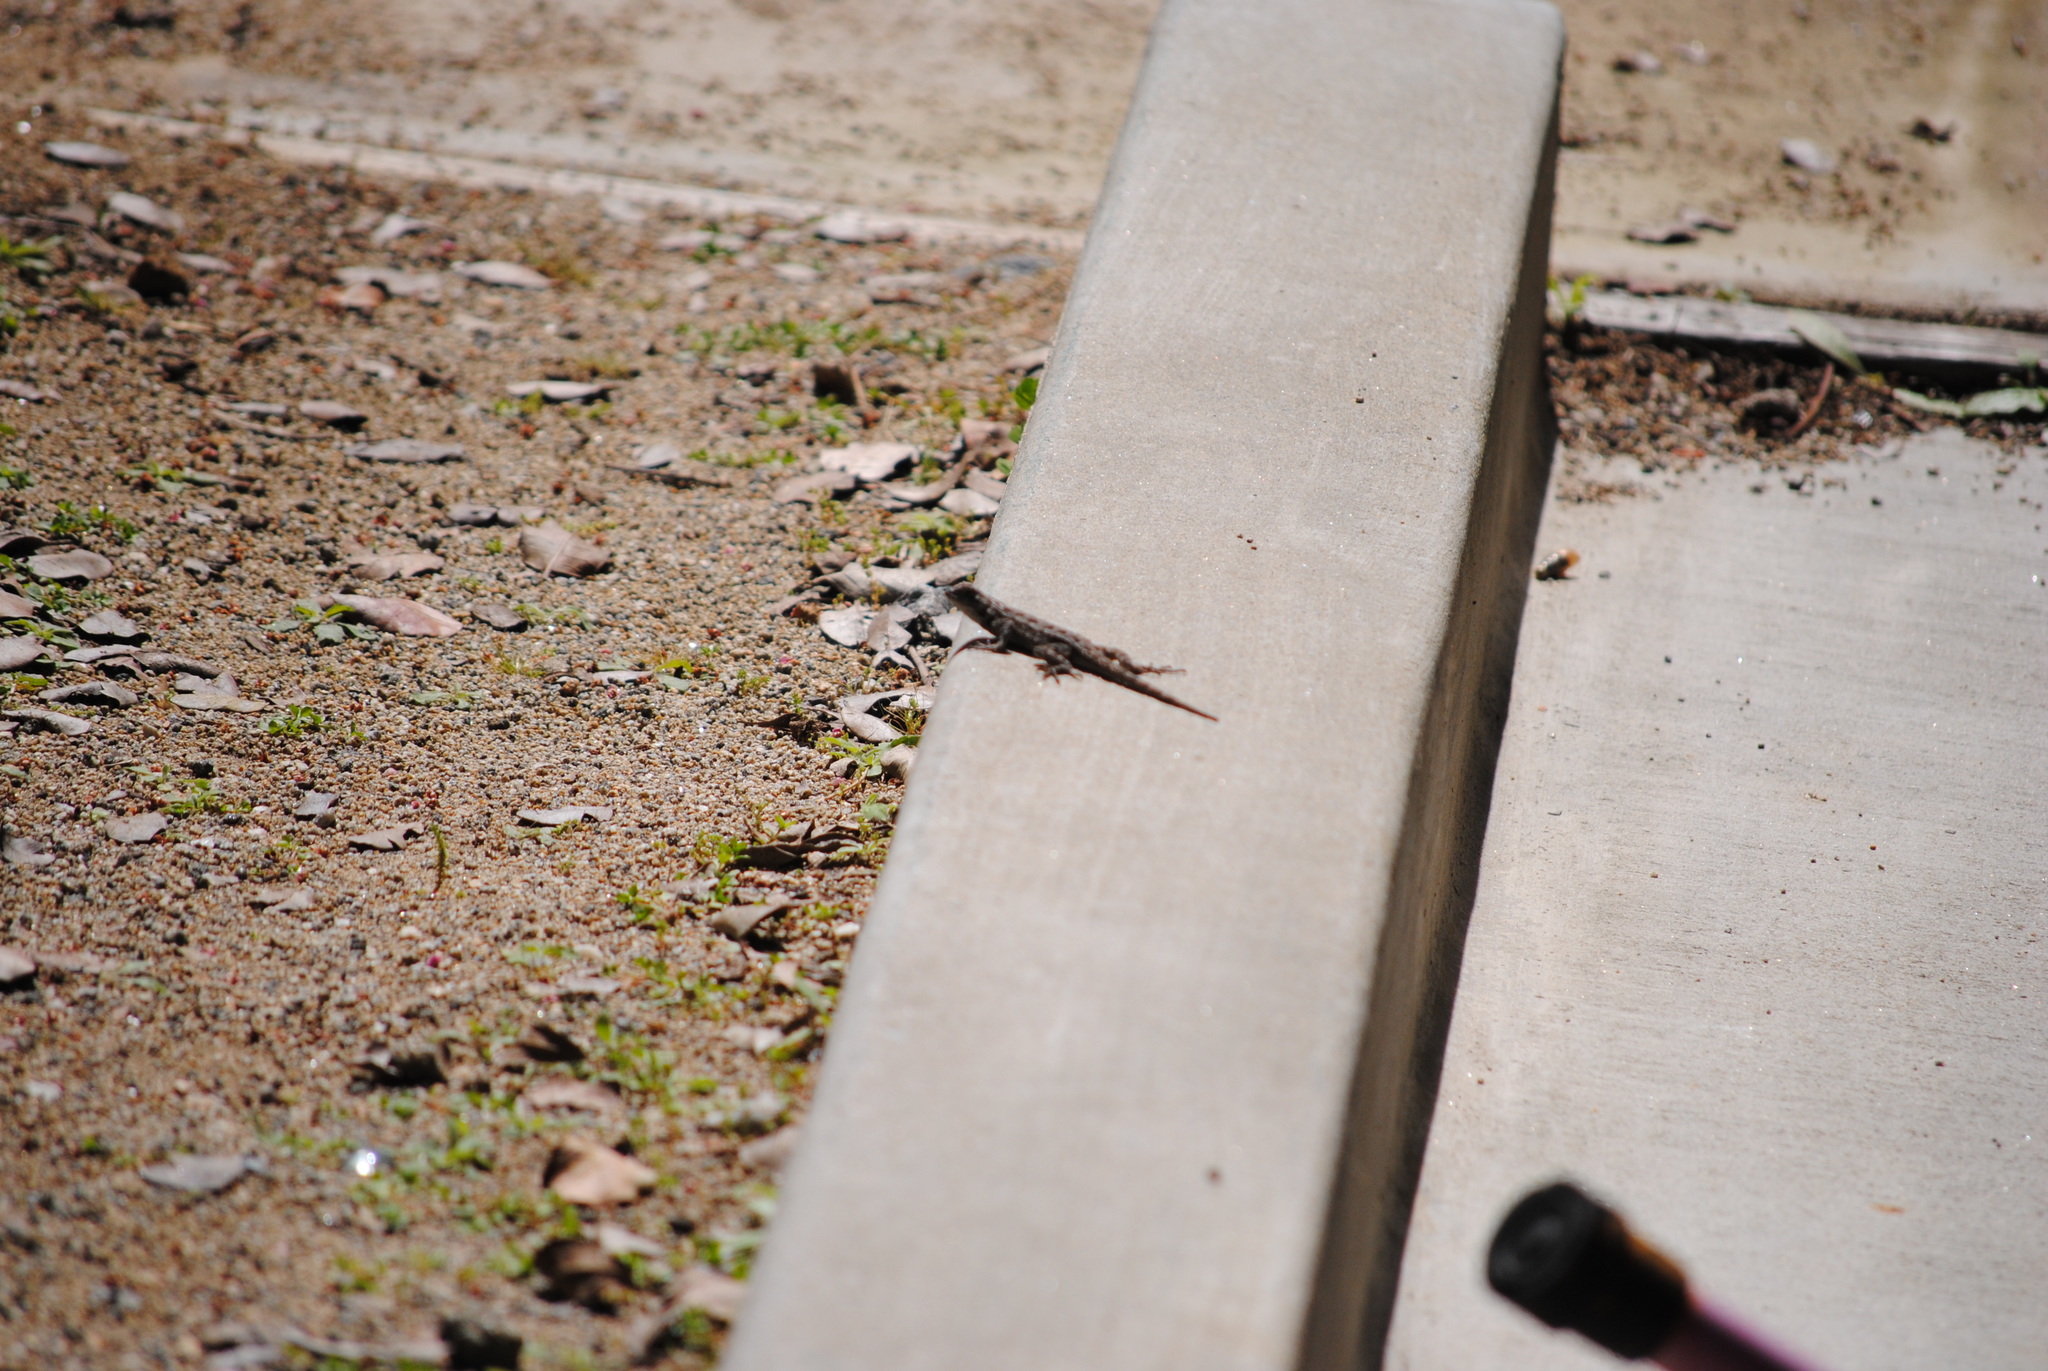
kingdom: Animalia
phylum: Chordata
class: Squamata
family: Phrynosomatidae
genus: Sceloporus
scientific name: Sceloporus occidentalis
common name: Western fence lizard
